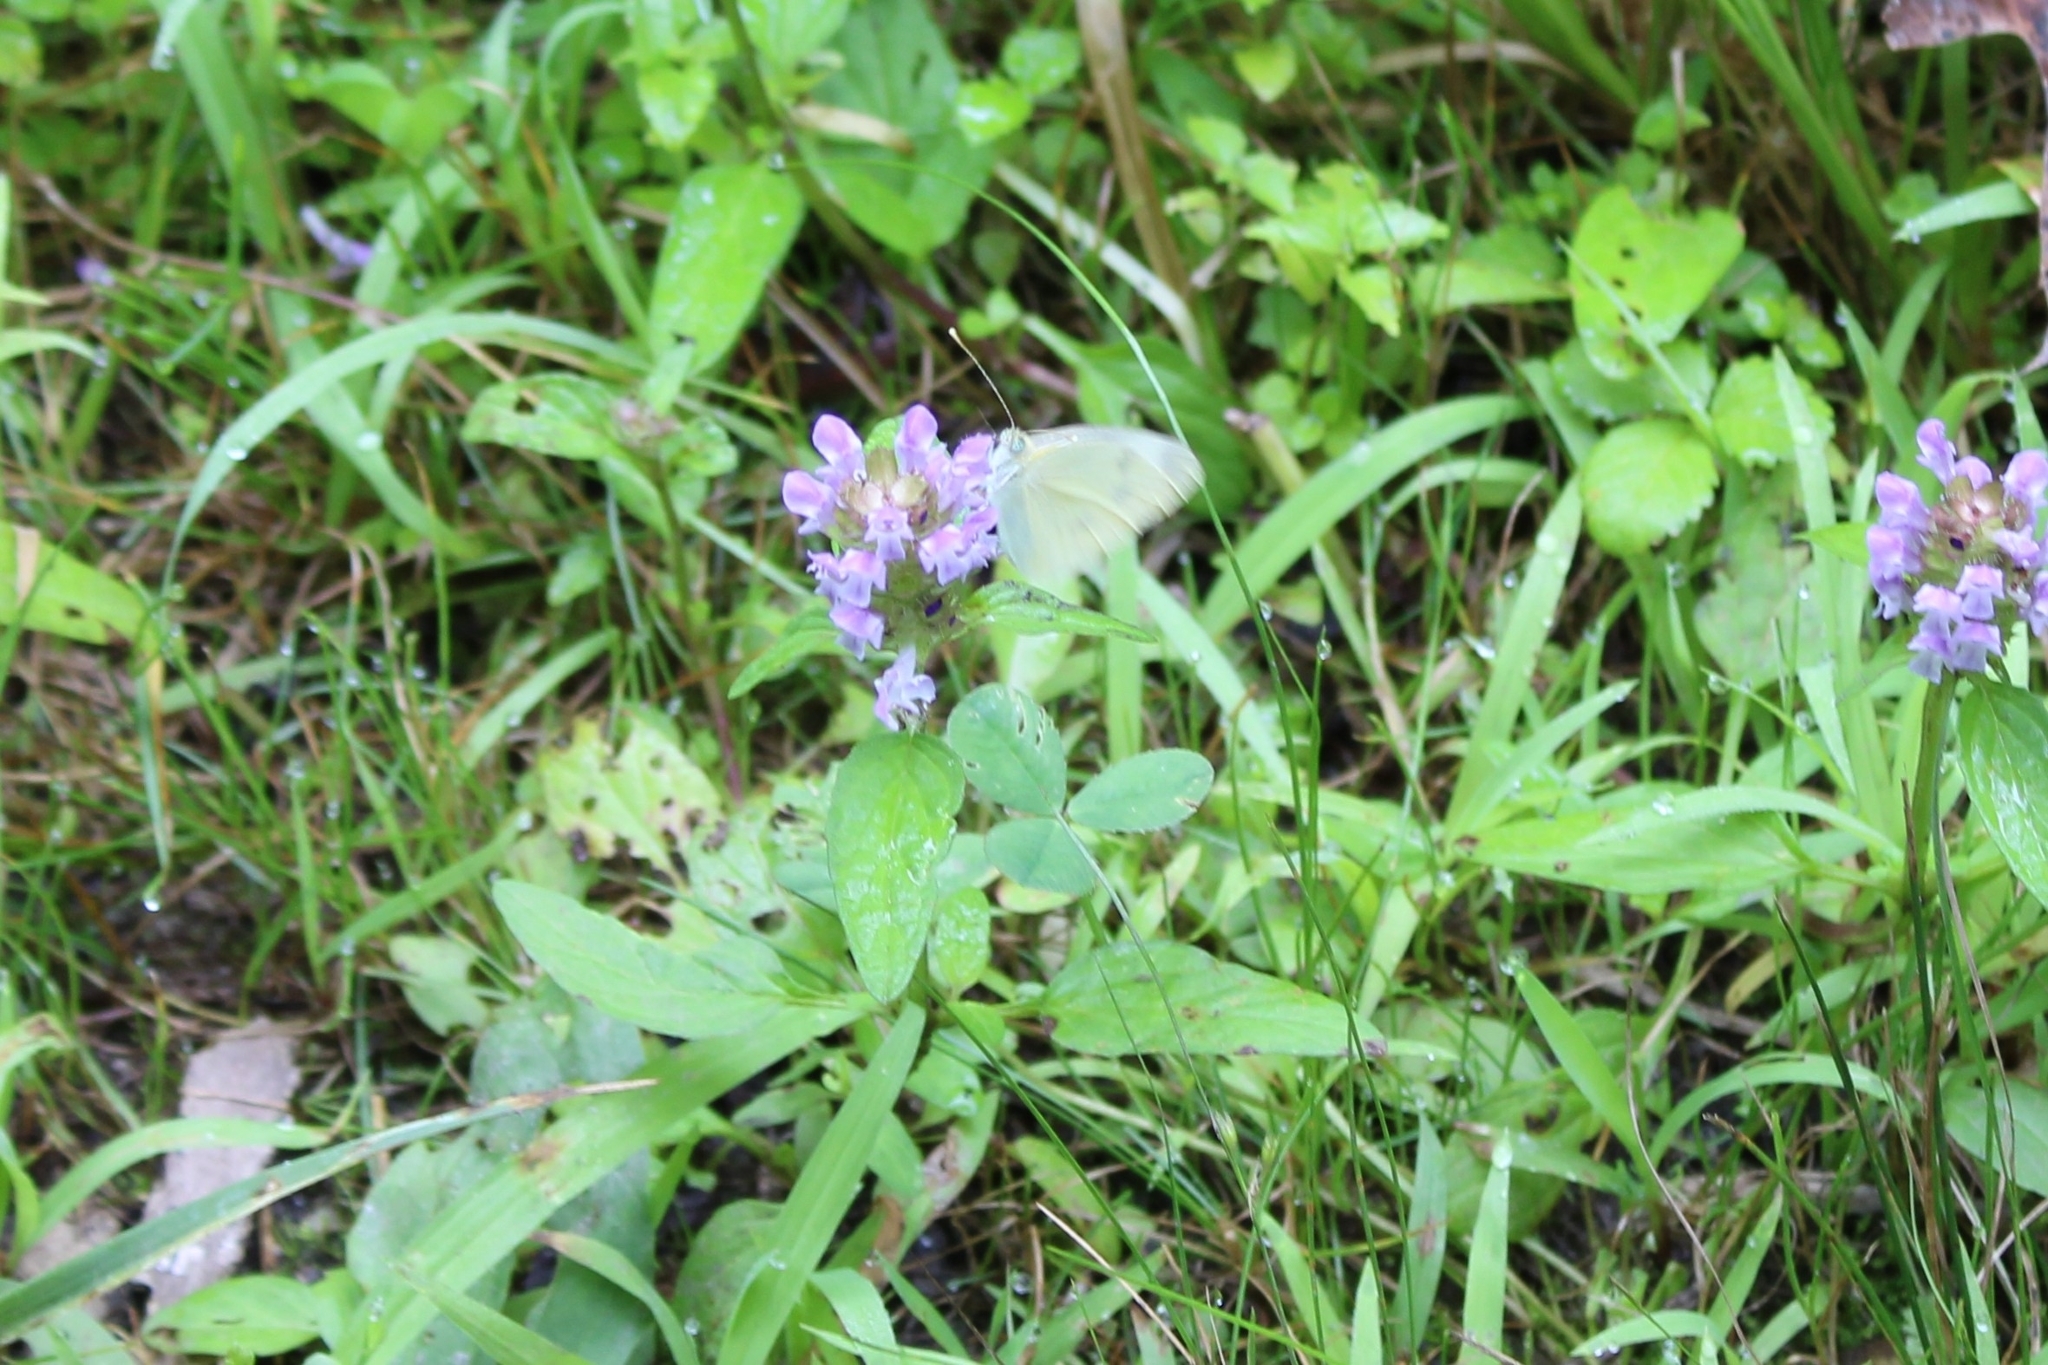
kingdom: Animalia
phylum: Arthropoda
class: Insecta
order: Lepidoptera
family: Pieridae
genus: Pieris
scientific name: Pieris rapae
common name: Small white
